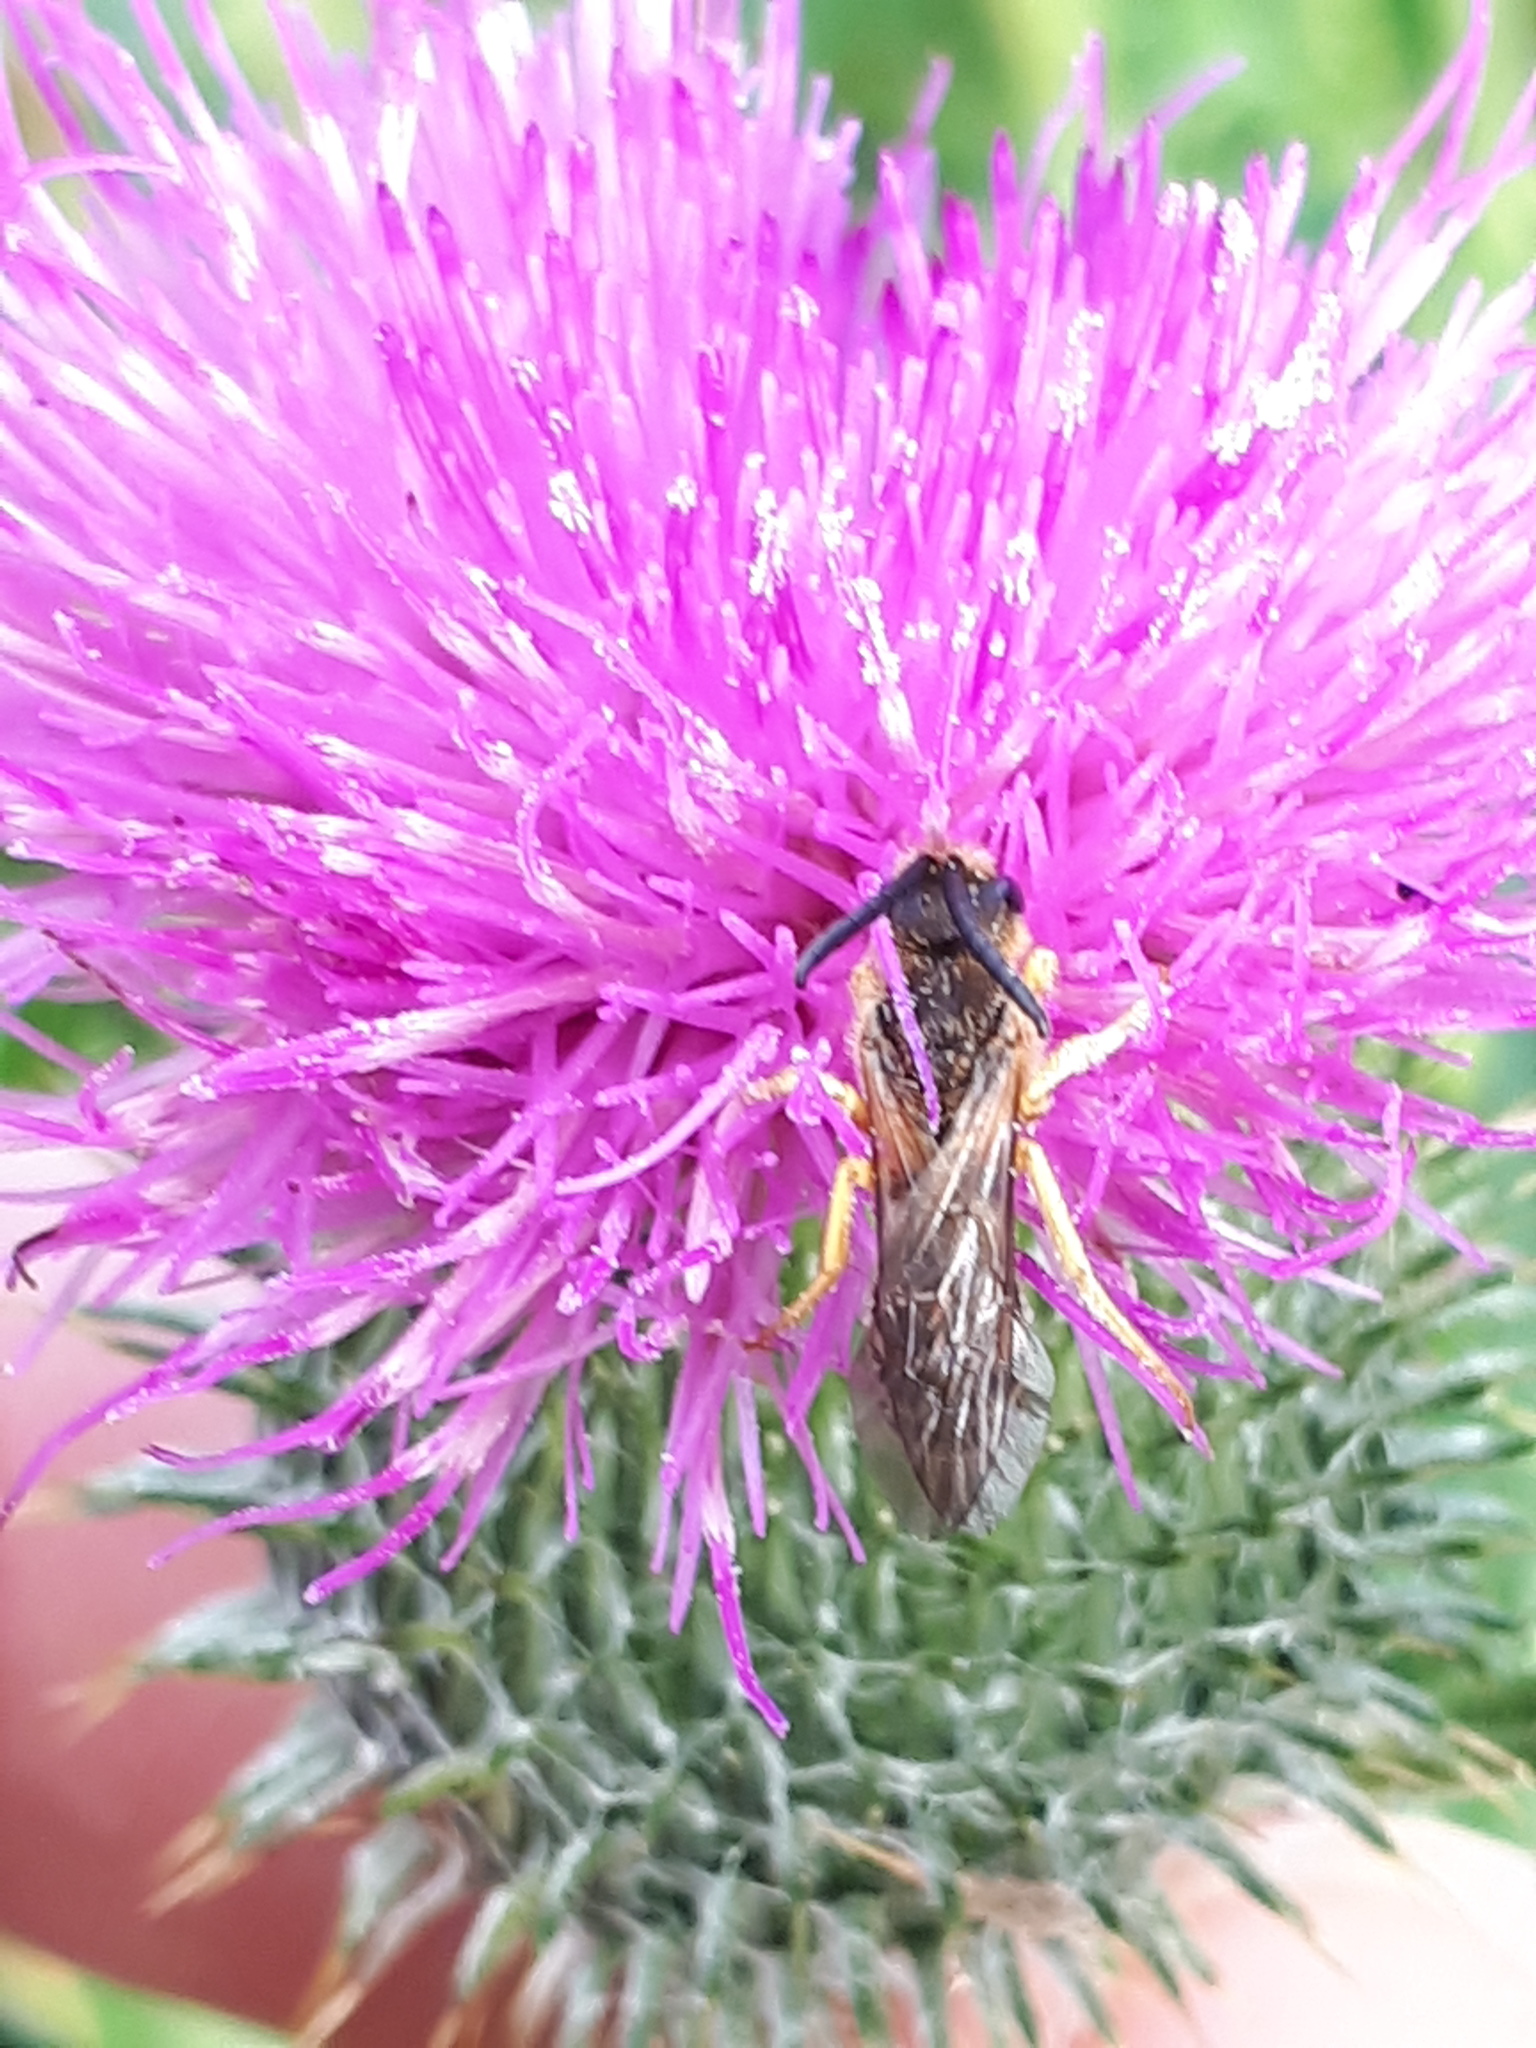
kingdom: Animalia
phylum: Arthropoda
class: Insecta
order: Hymenoptera
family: Halictidae
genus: Halictus
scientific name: Halictus scabiosae
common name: Great banded furrow bee
